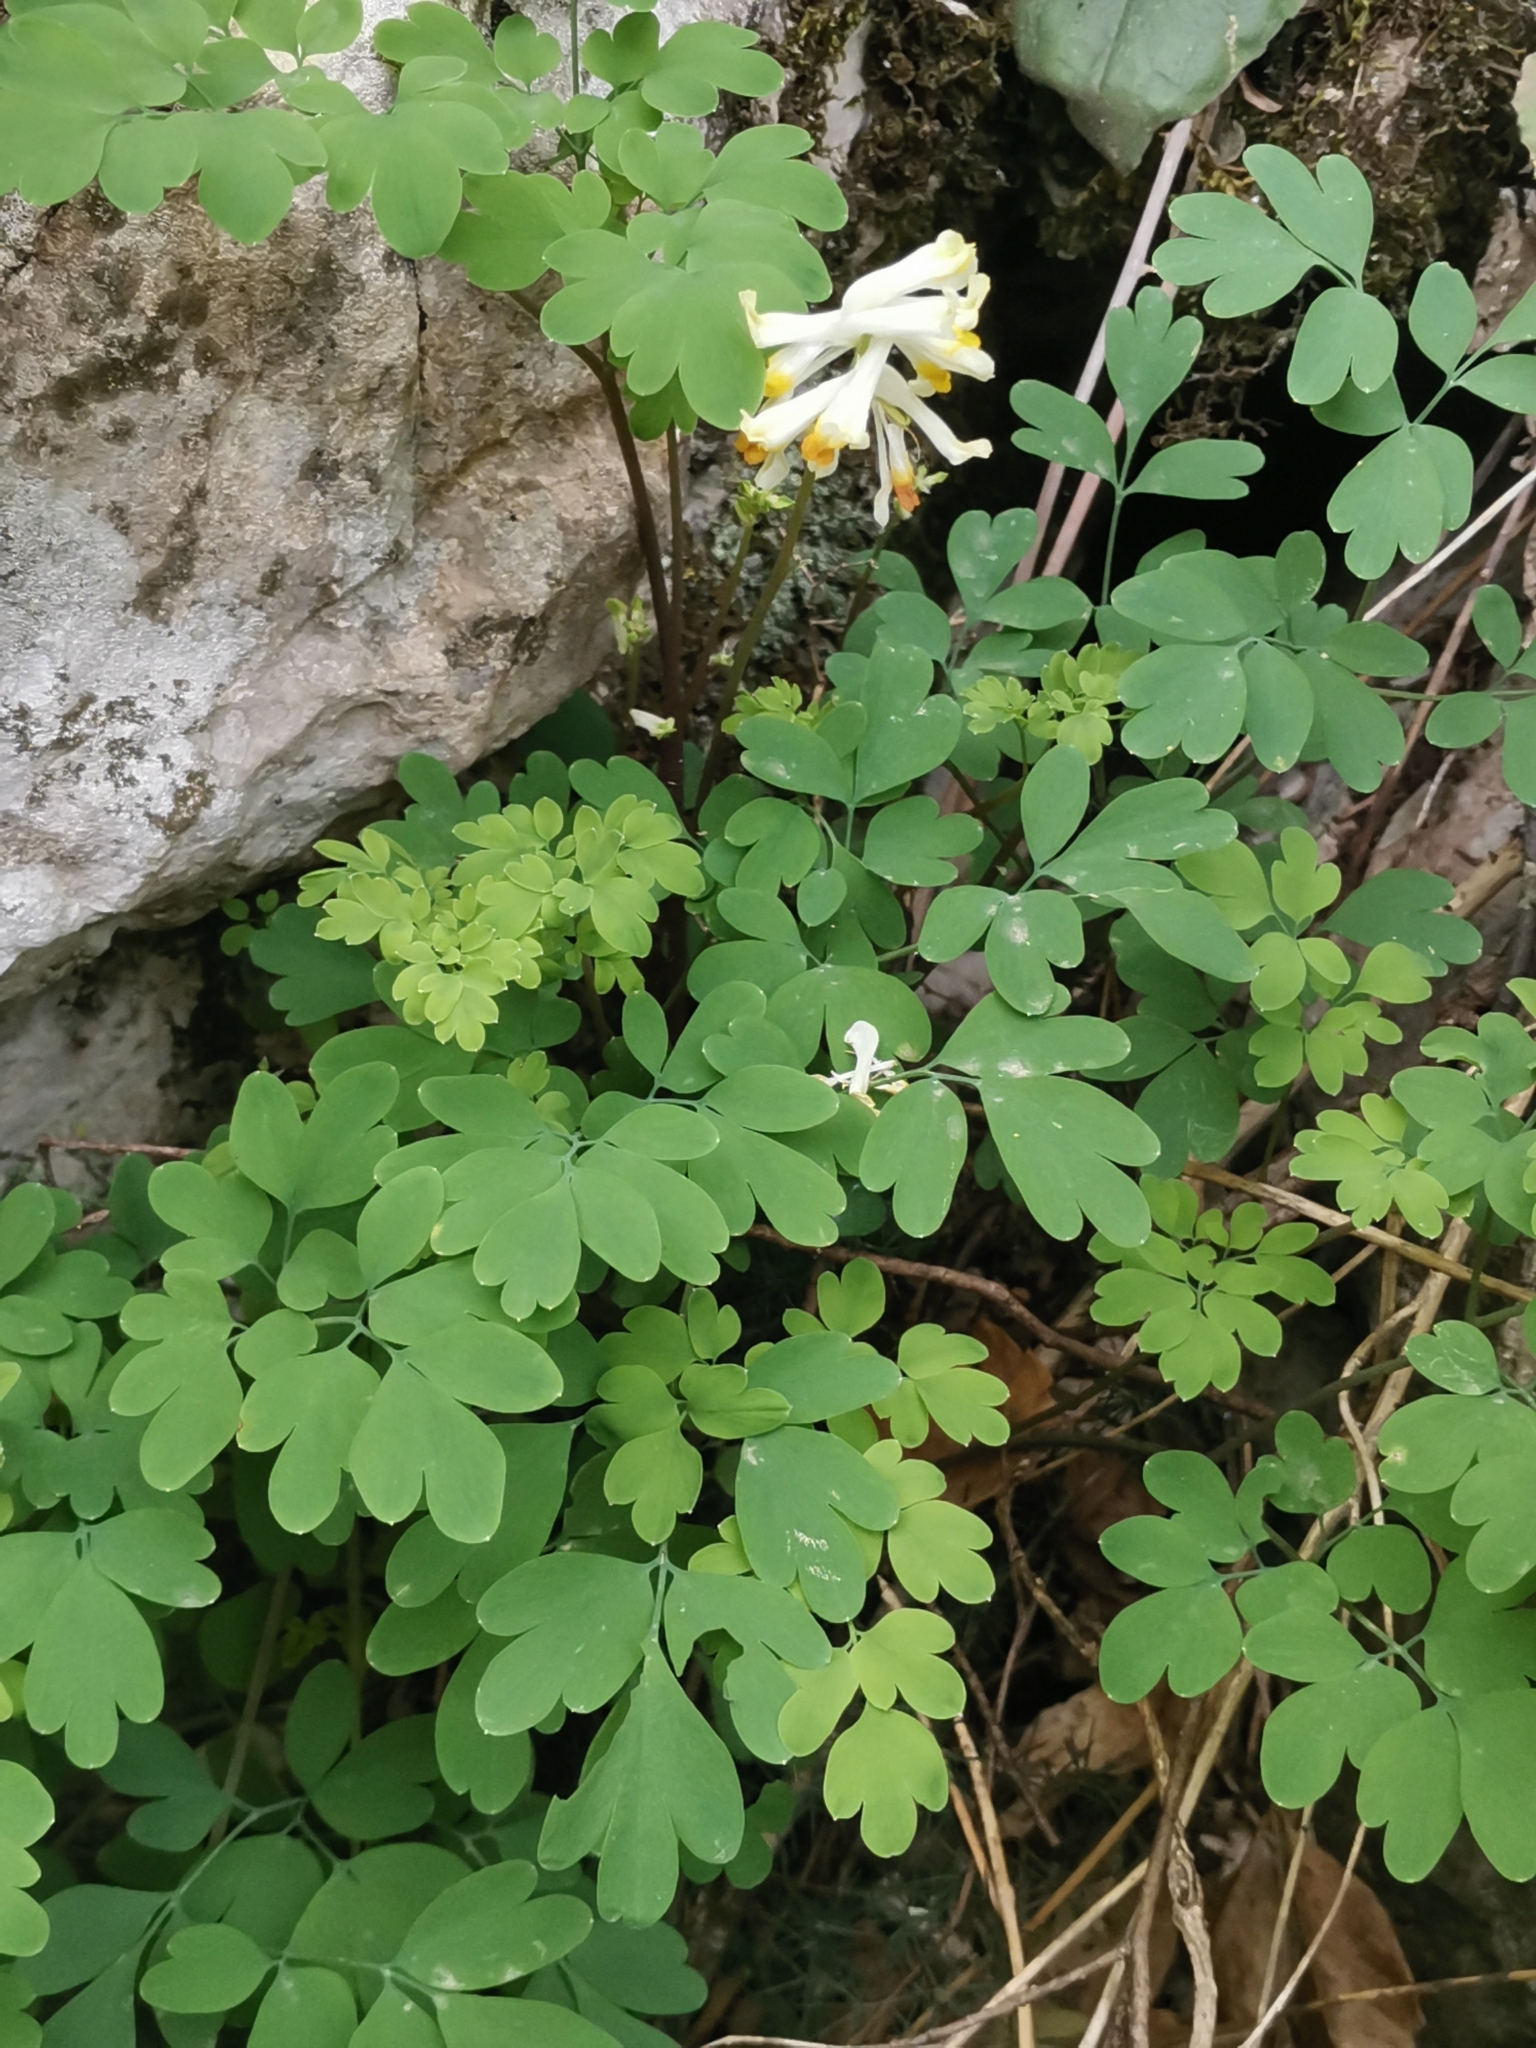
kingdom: Plantae
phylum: Tracheophyta
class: Magnoliopsida
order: Ranunculales
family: Papaveraceae
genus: Pseudofumaria
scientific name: Pseudofumaria alba
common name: Pale corydalis
